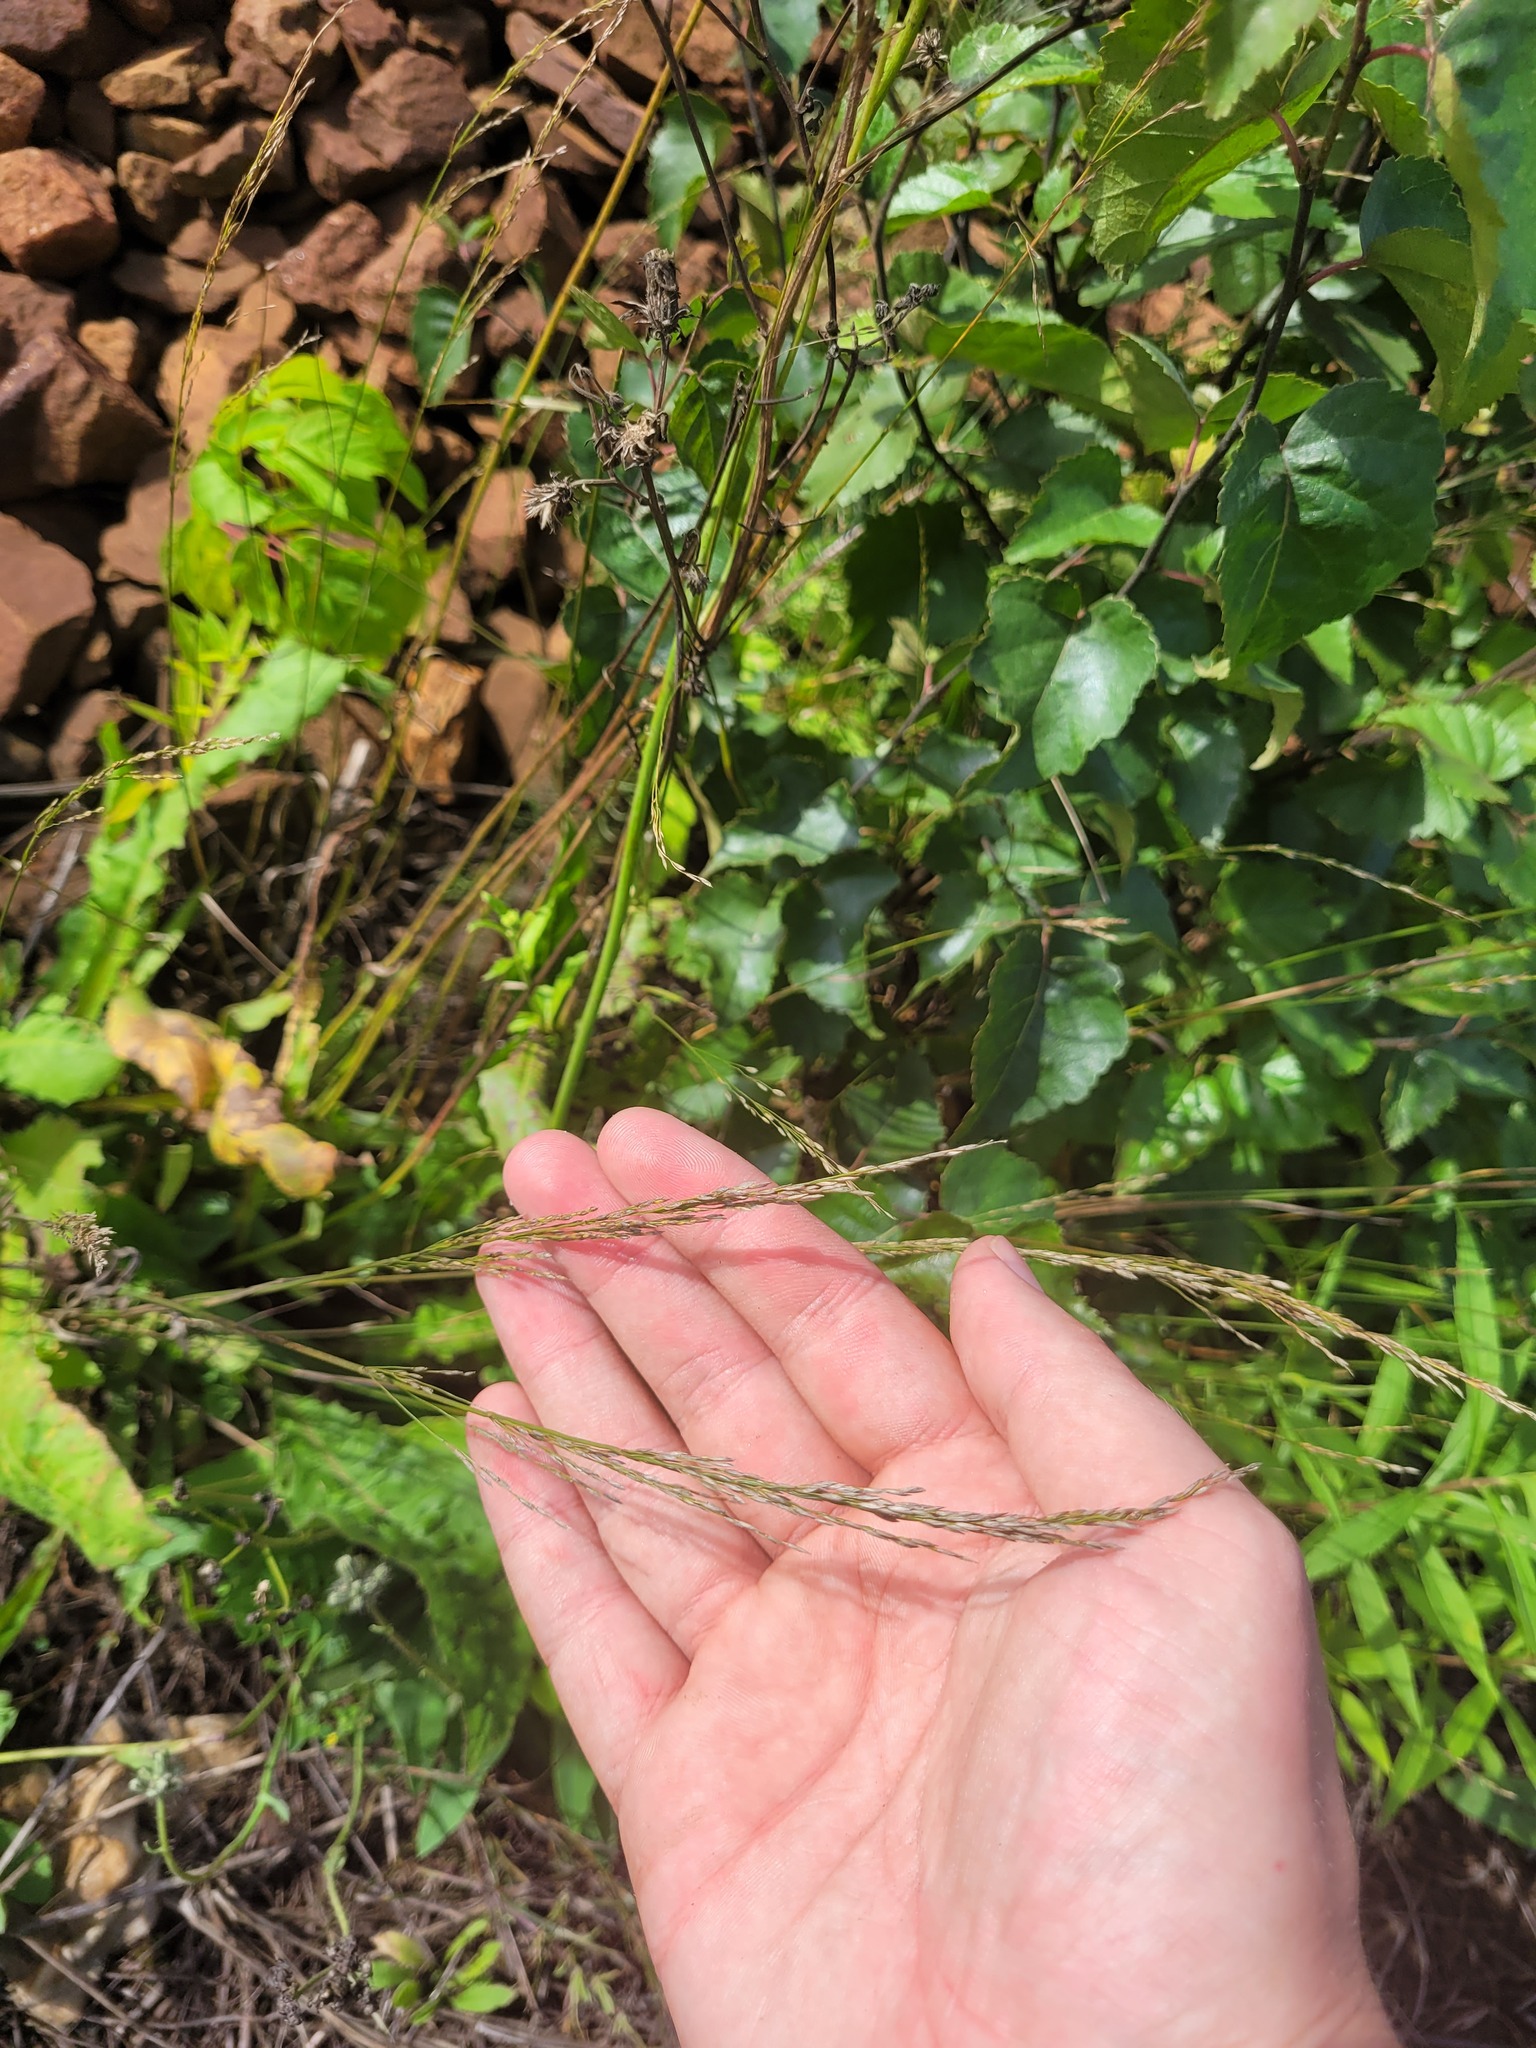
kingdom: Plantae
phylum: Tracheophyta
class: Liliopsida
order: Poales
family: Poaceae
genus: Poa
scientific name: Poa palustris
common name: Swamp meadow-grass
